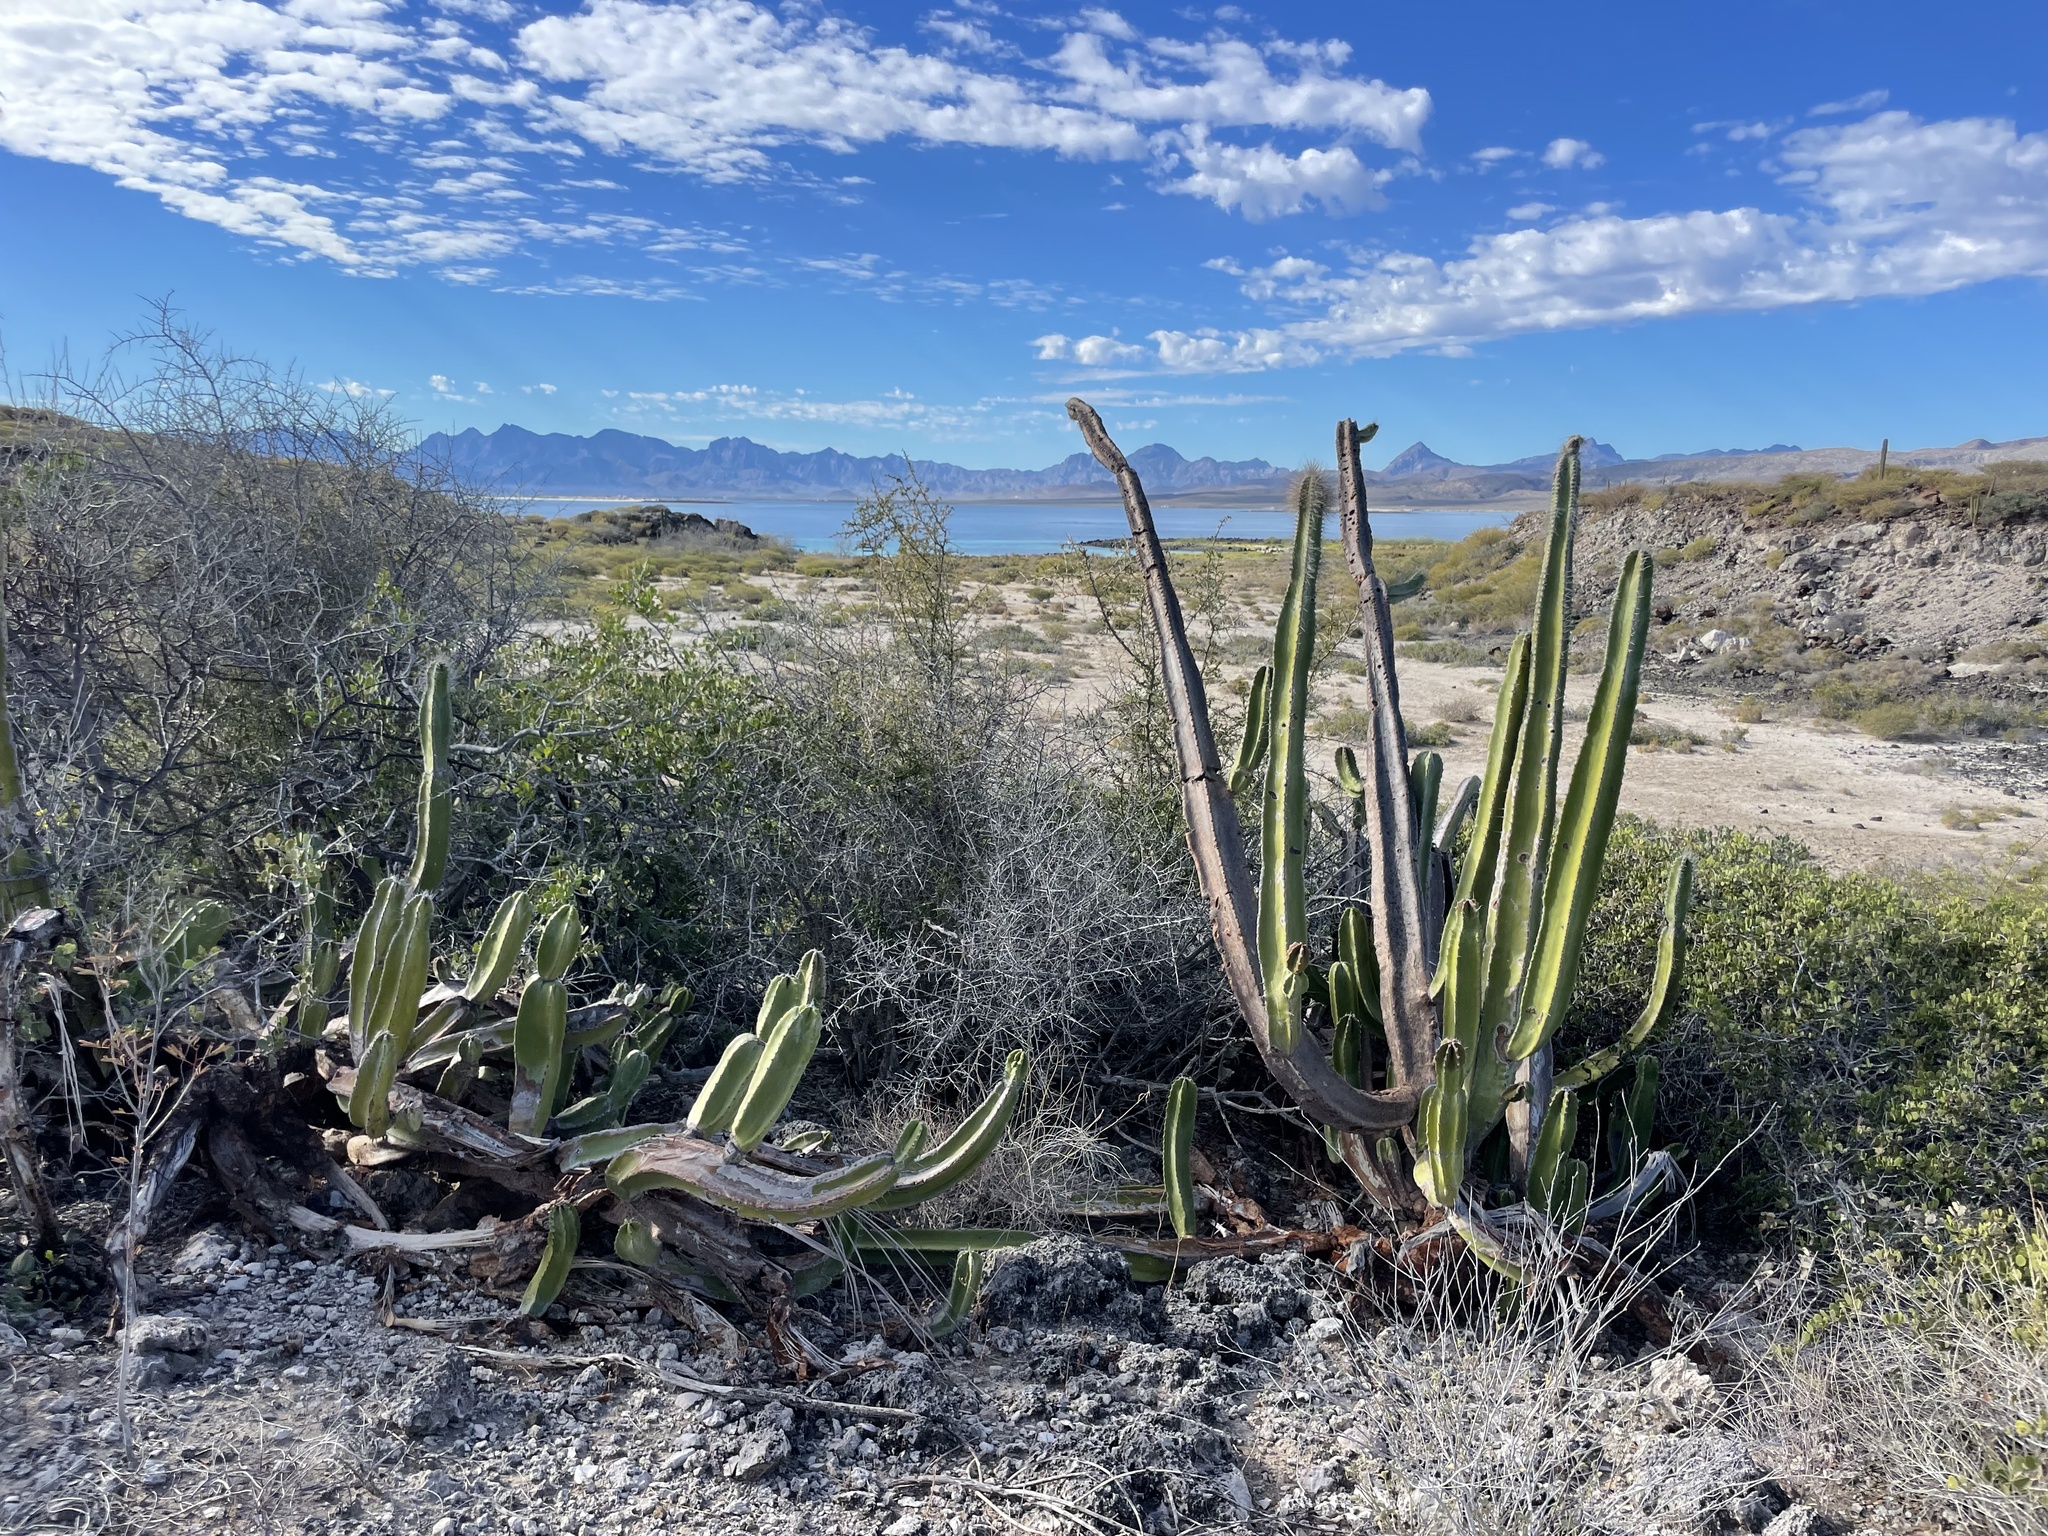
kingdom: Plantae
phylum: Tracheophyta
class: Magnoliopsida
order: Caryophyllales
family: Cactaceae
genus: Pachycereus
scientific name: Pachycereus schottii
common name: Senita cactus
